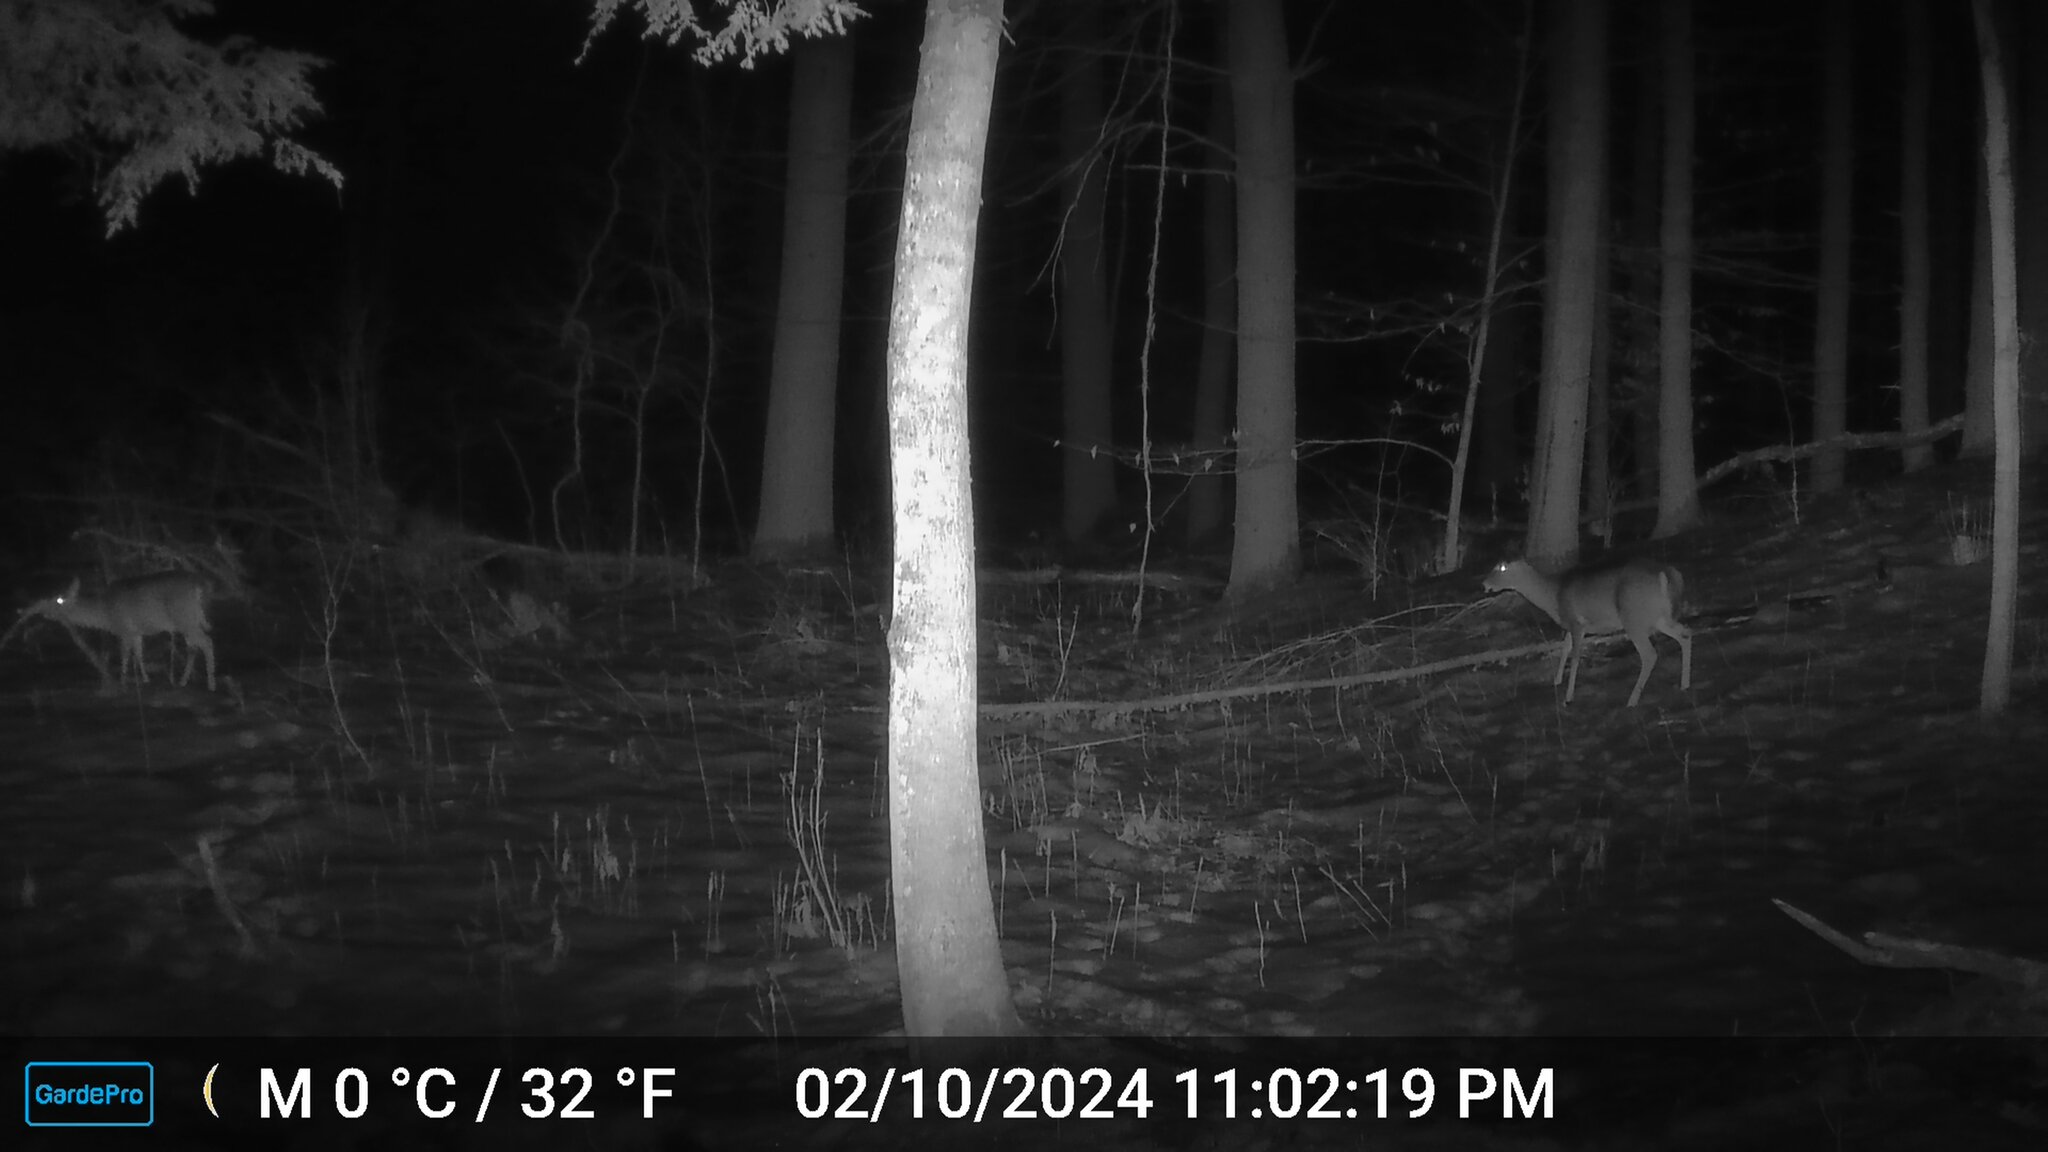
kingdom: Animalia
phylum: Chordata
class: Mammalia
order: Artiodactyla
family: Cervidae
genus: Odocoileus
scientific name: Odocoileus virginianus
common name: White-tailed deer
